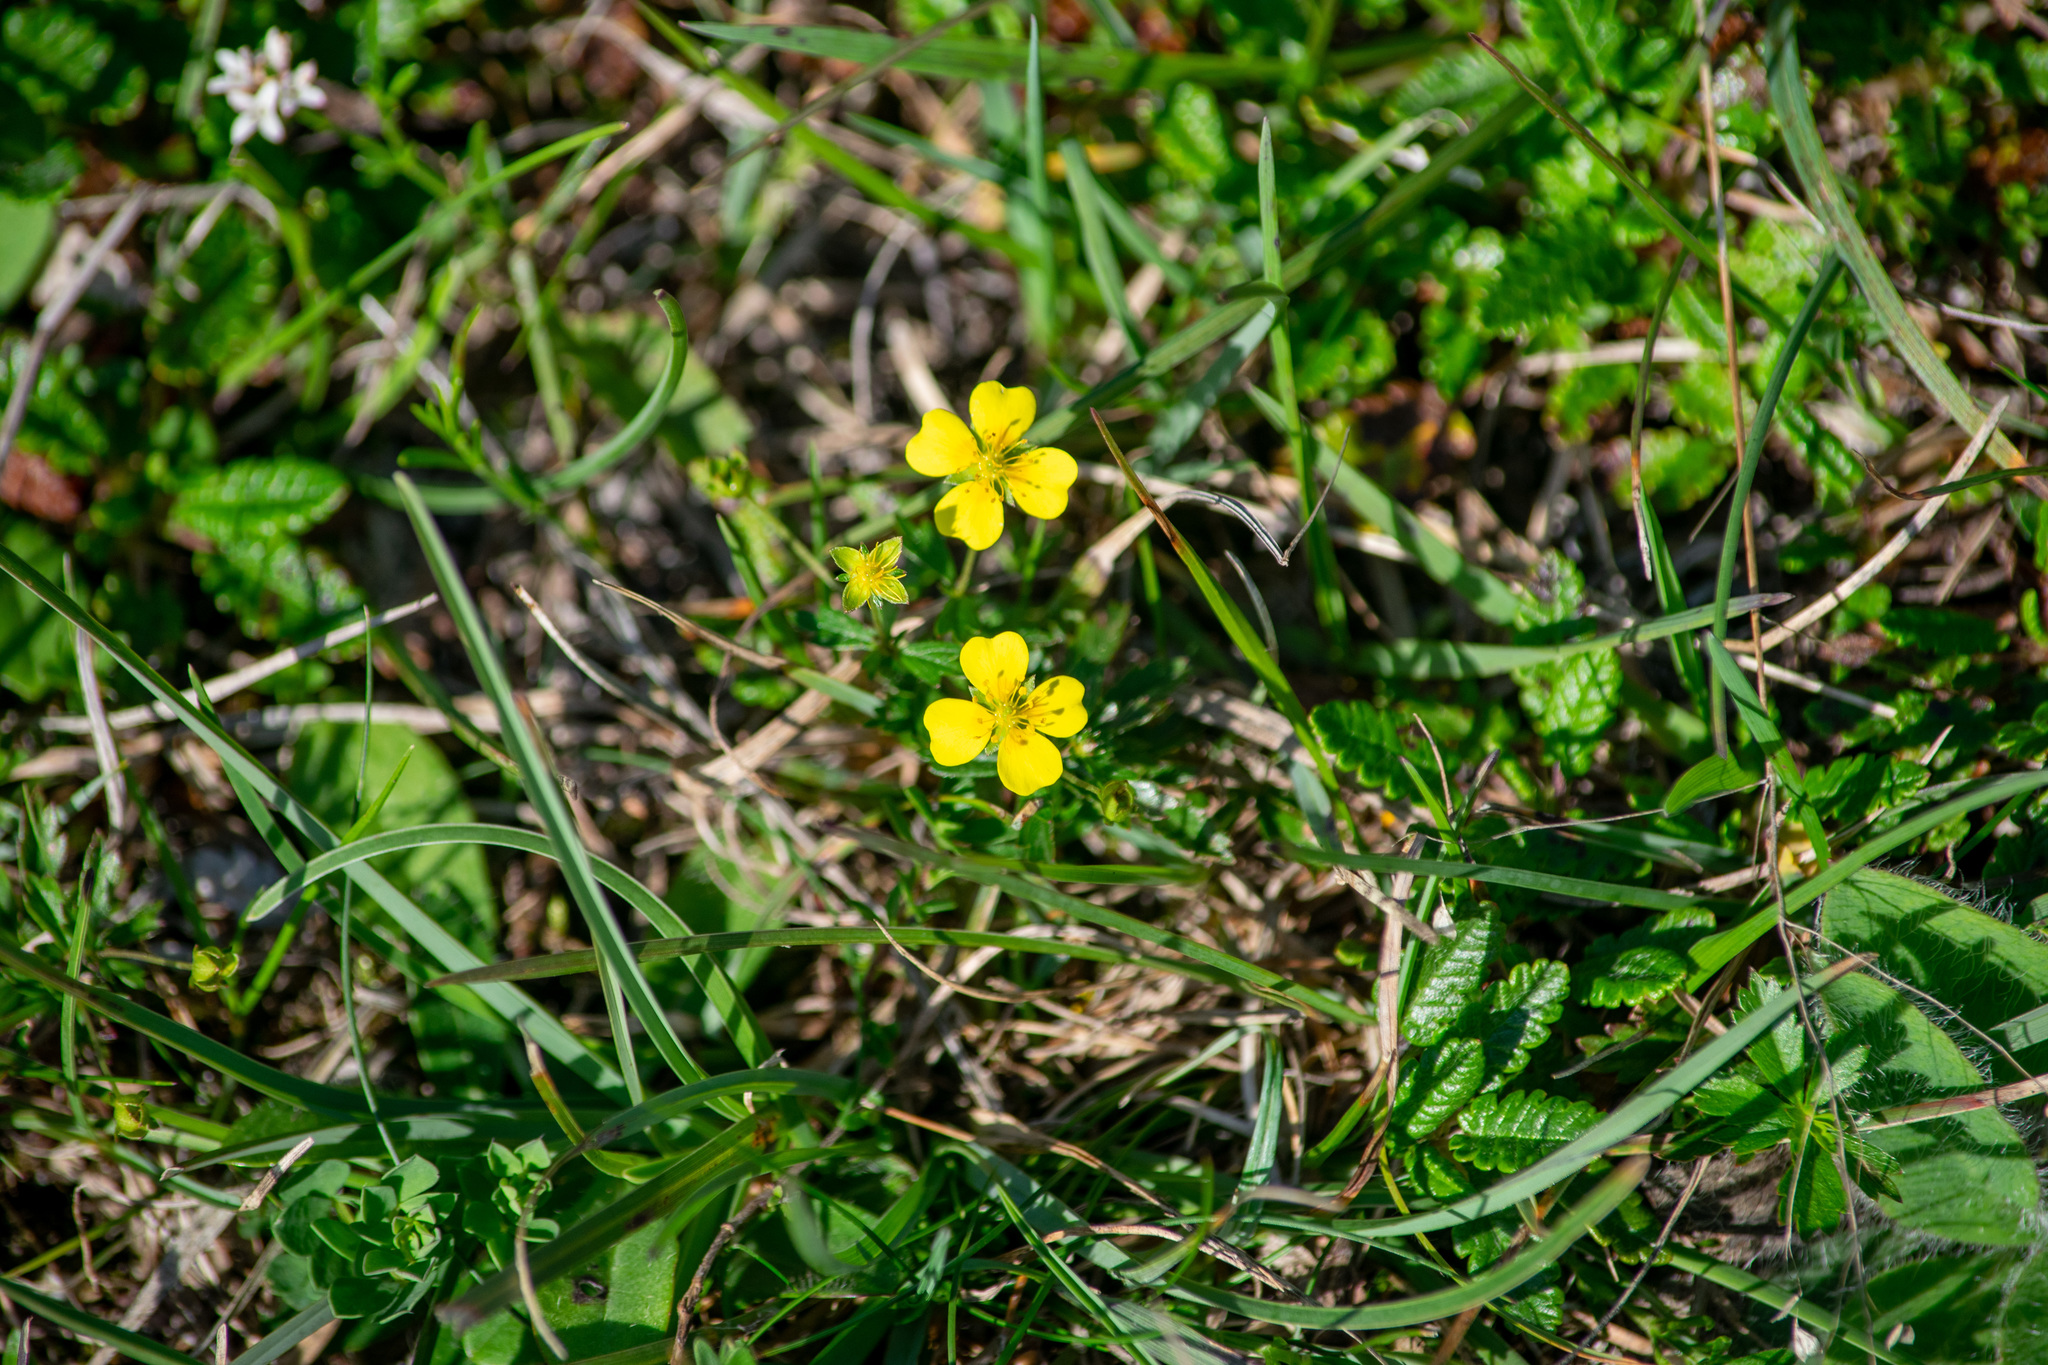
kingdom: Plantae
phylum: Tracheophyta
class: Magnoliopsida
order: Rosales
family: Rosaceae
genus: Potentilla
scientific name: Potentilla erecta
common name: Tormentil
